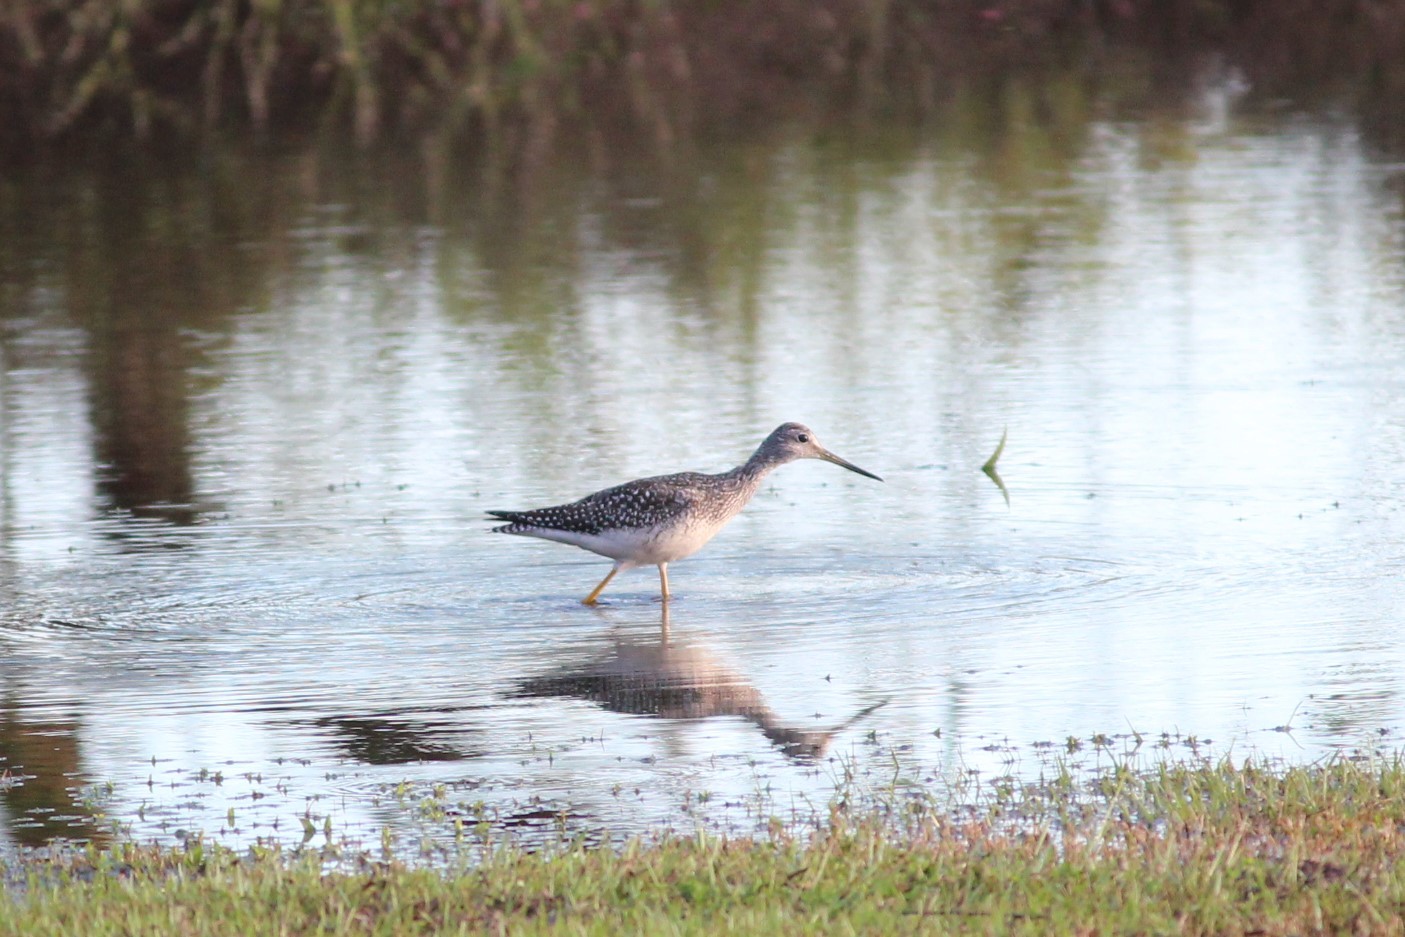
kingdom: Animalia
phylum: Chordata
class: Aves
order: Charadriiformes
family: Scolopacidae
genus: Tringa
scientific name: Tringa melanoleuca
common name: Greater yellowlegs
